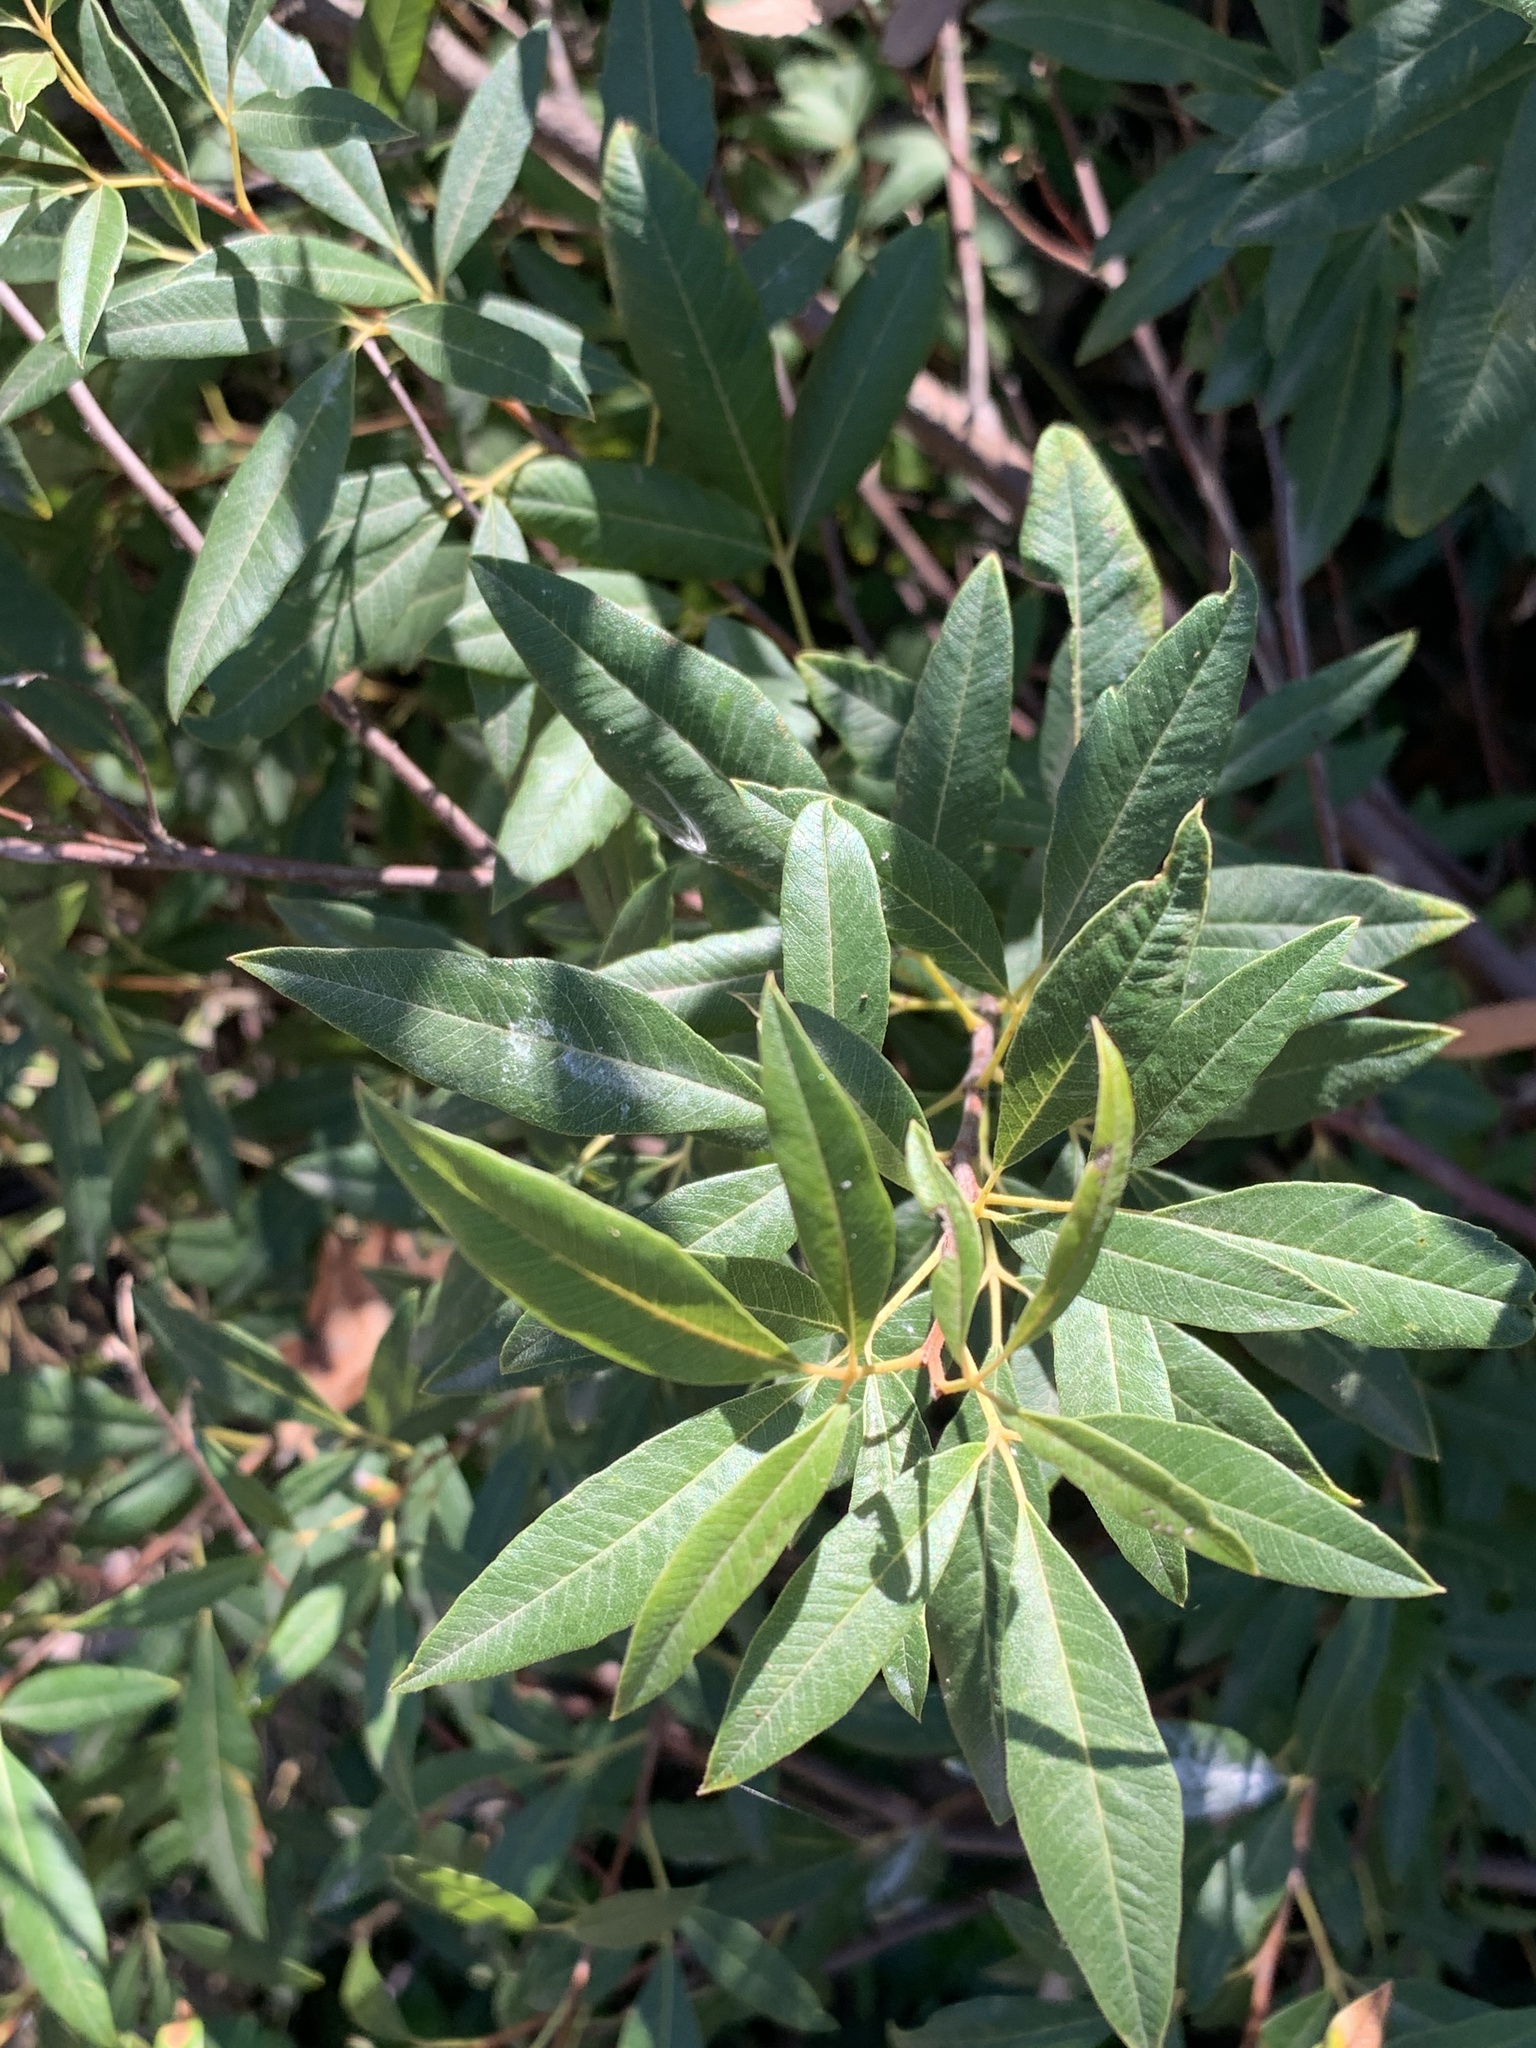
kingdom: Plantae
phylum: Tracheophyta
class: Magnoliopsida
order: Sapindales
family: Anacardiaceae
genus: Searsia
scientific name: Searsia angustifolia
